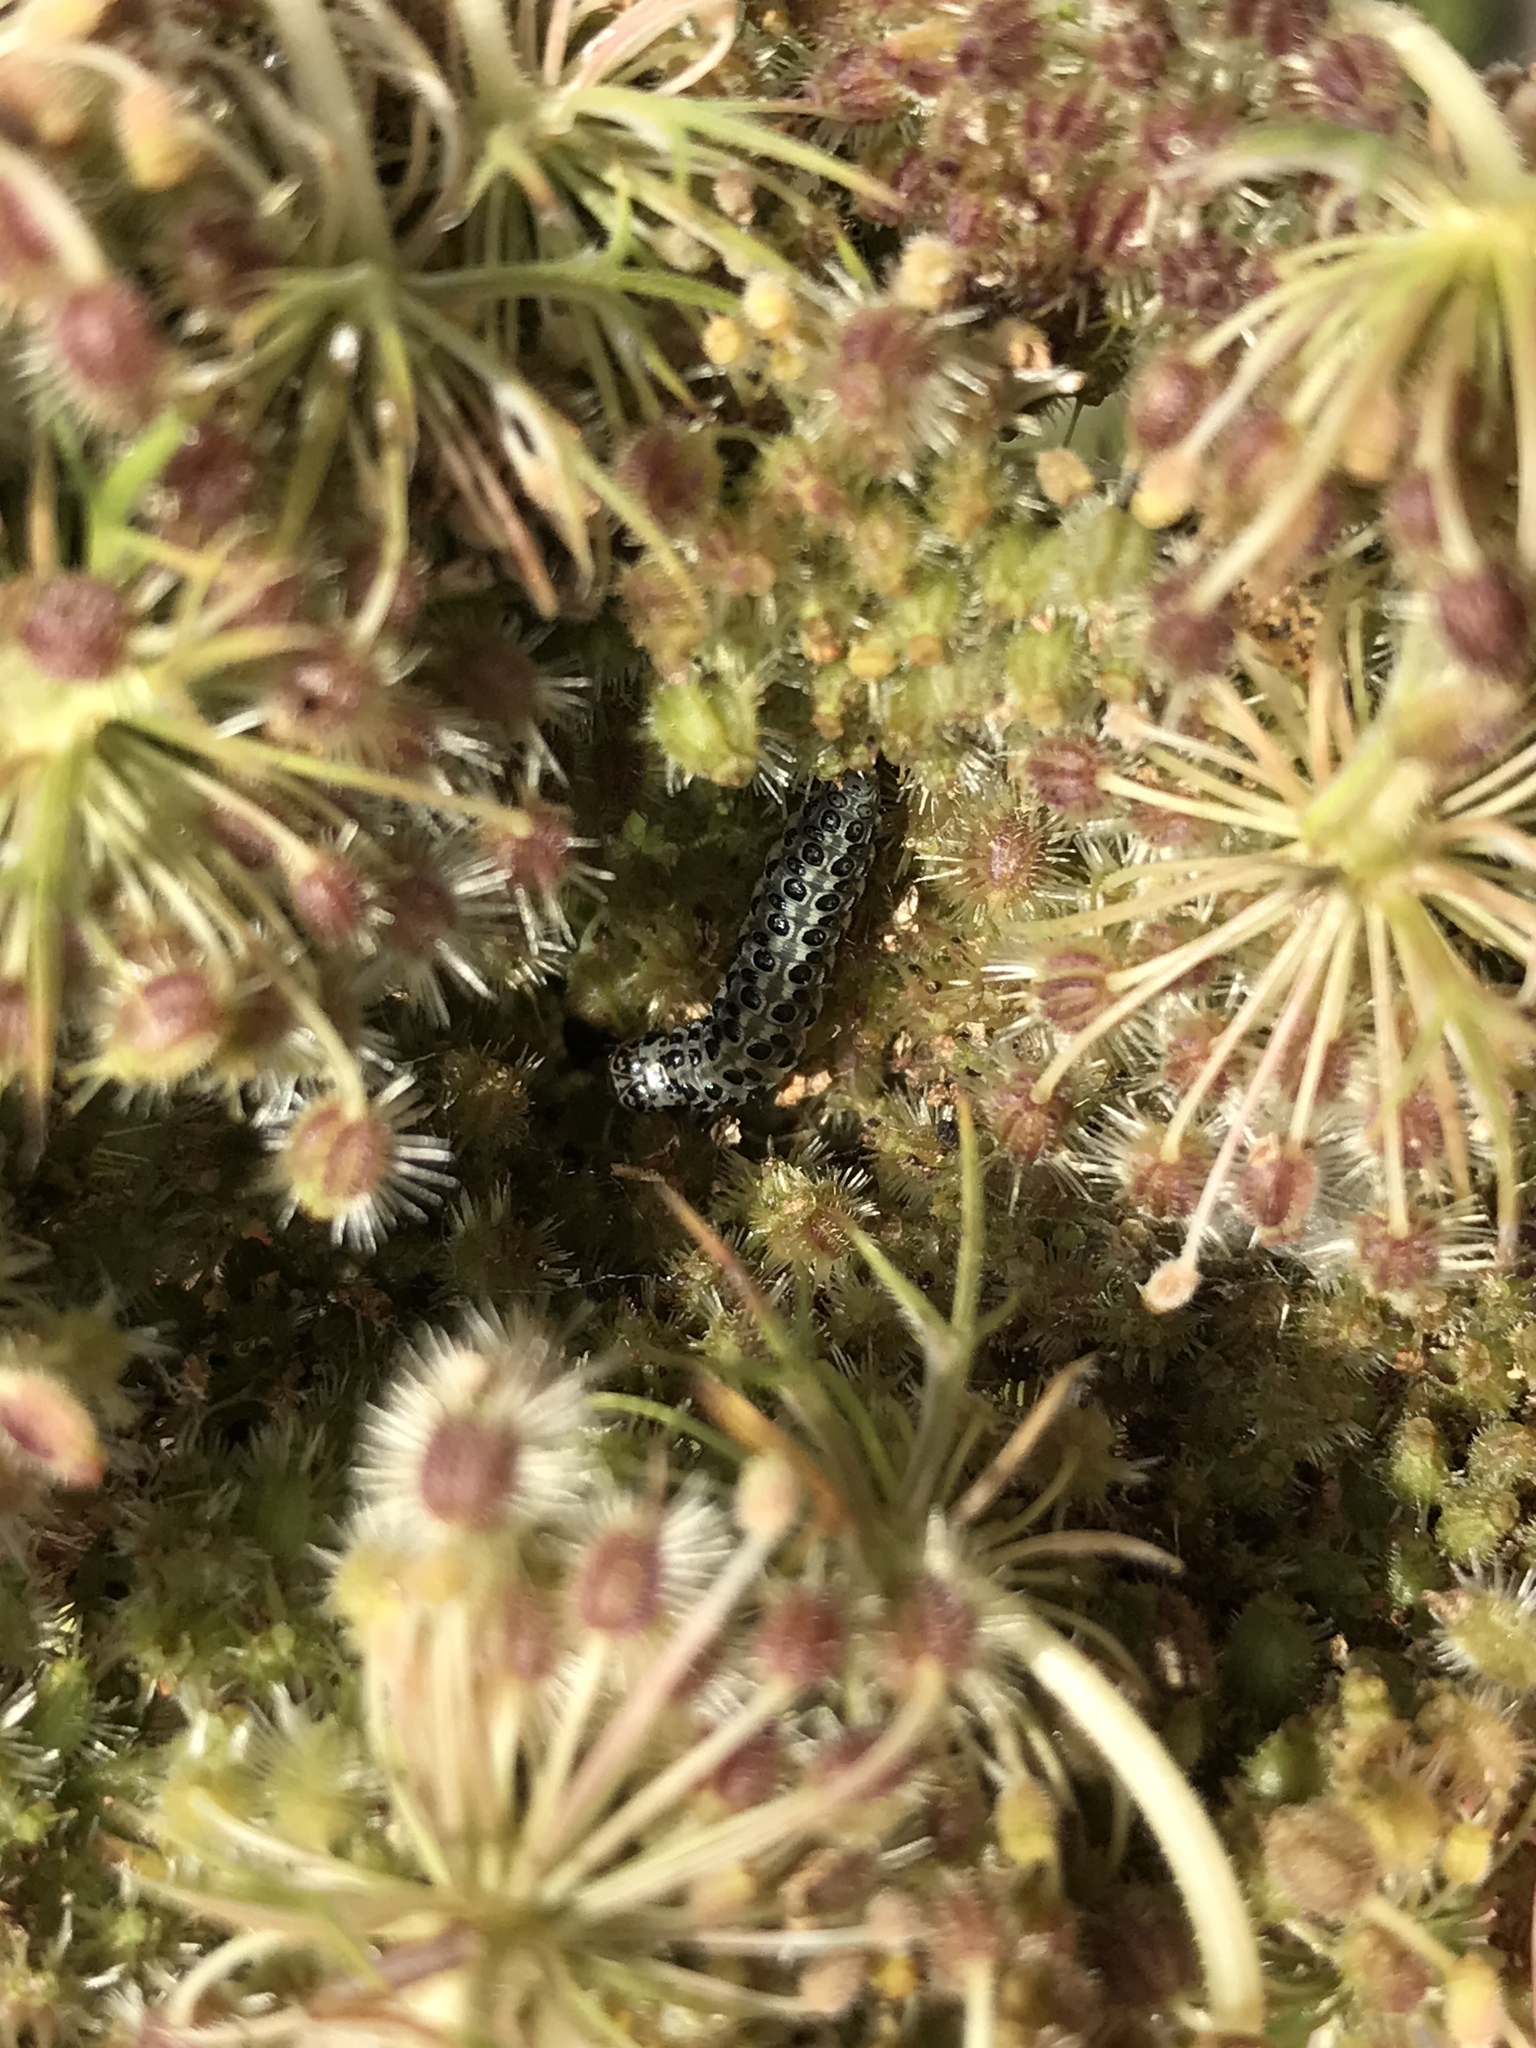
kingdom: Animalia
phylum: Arthropoda
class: Insecta
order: Lepidoptera
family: Crambidae
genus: Sitochroa
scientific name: Sitochroa palealis
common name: Greenish-yellow sitochroa moth
